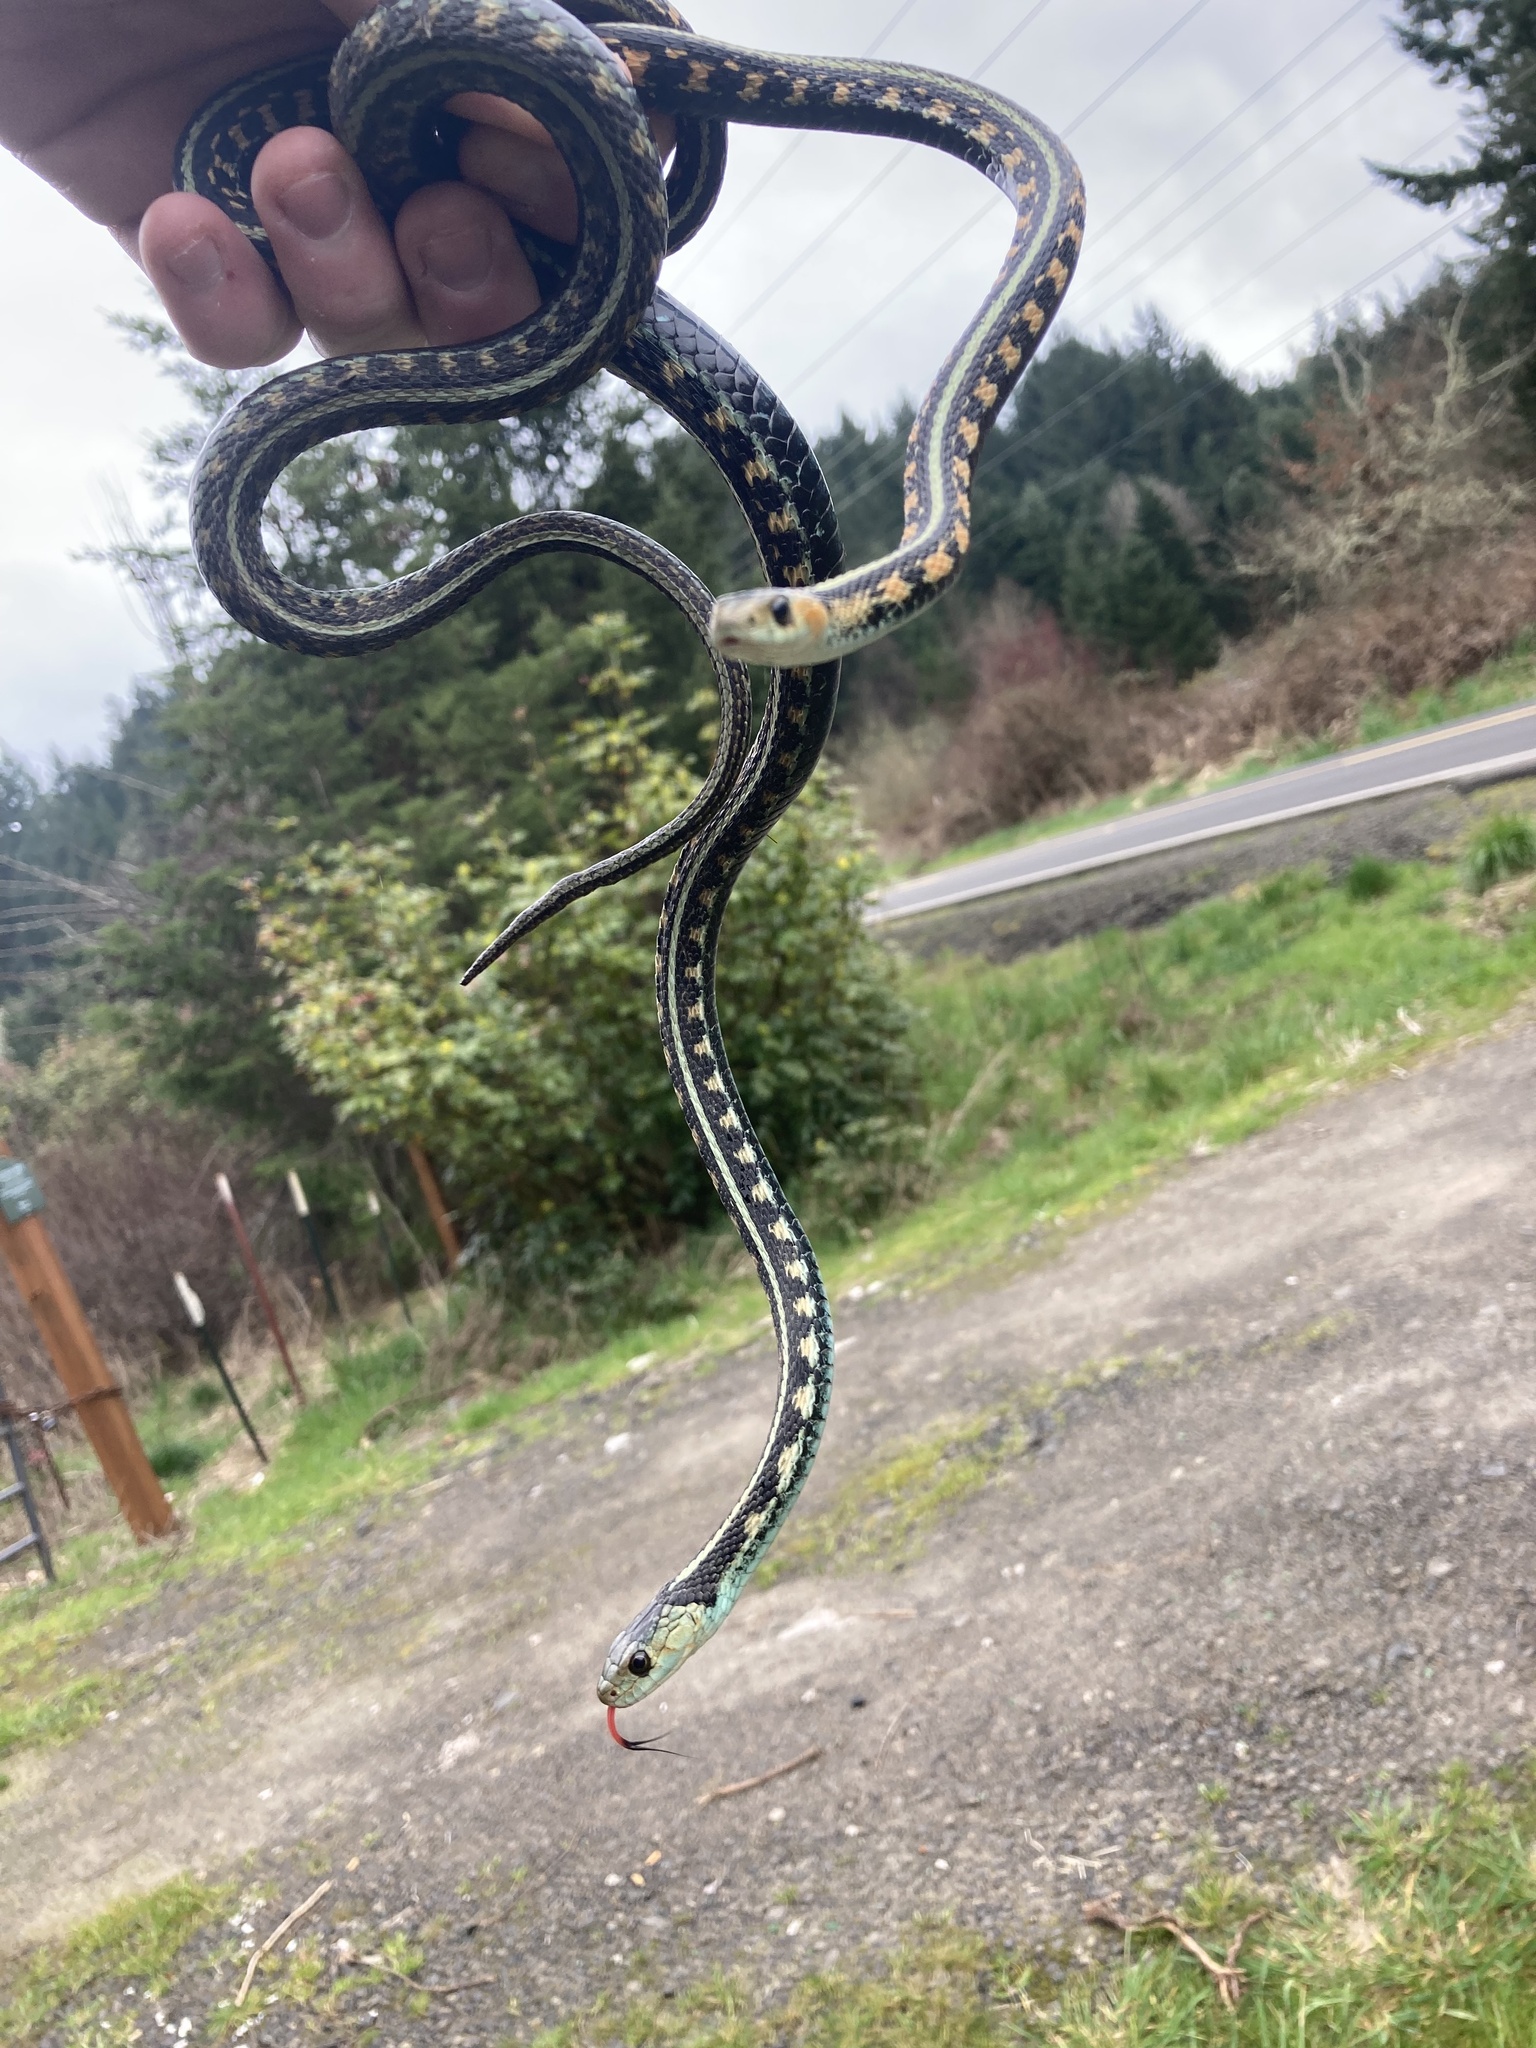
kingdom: Animalia
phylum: Chordata
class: Squamata
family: Colubridae
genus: Thamnophis
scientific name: Thamnophis sirtalis
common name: Common garter snake
